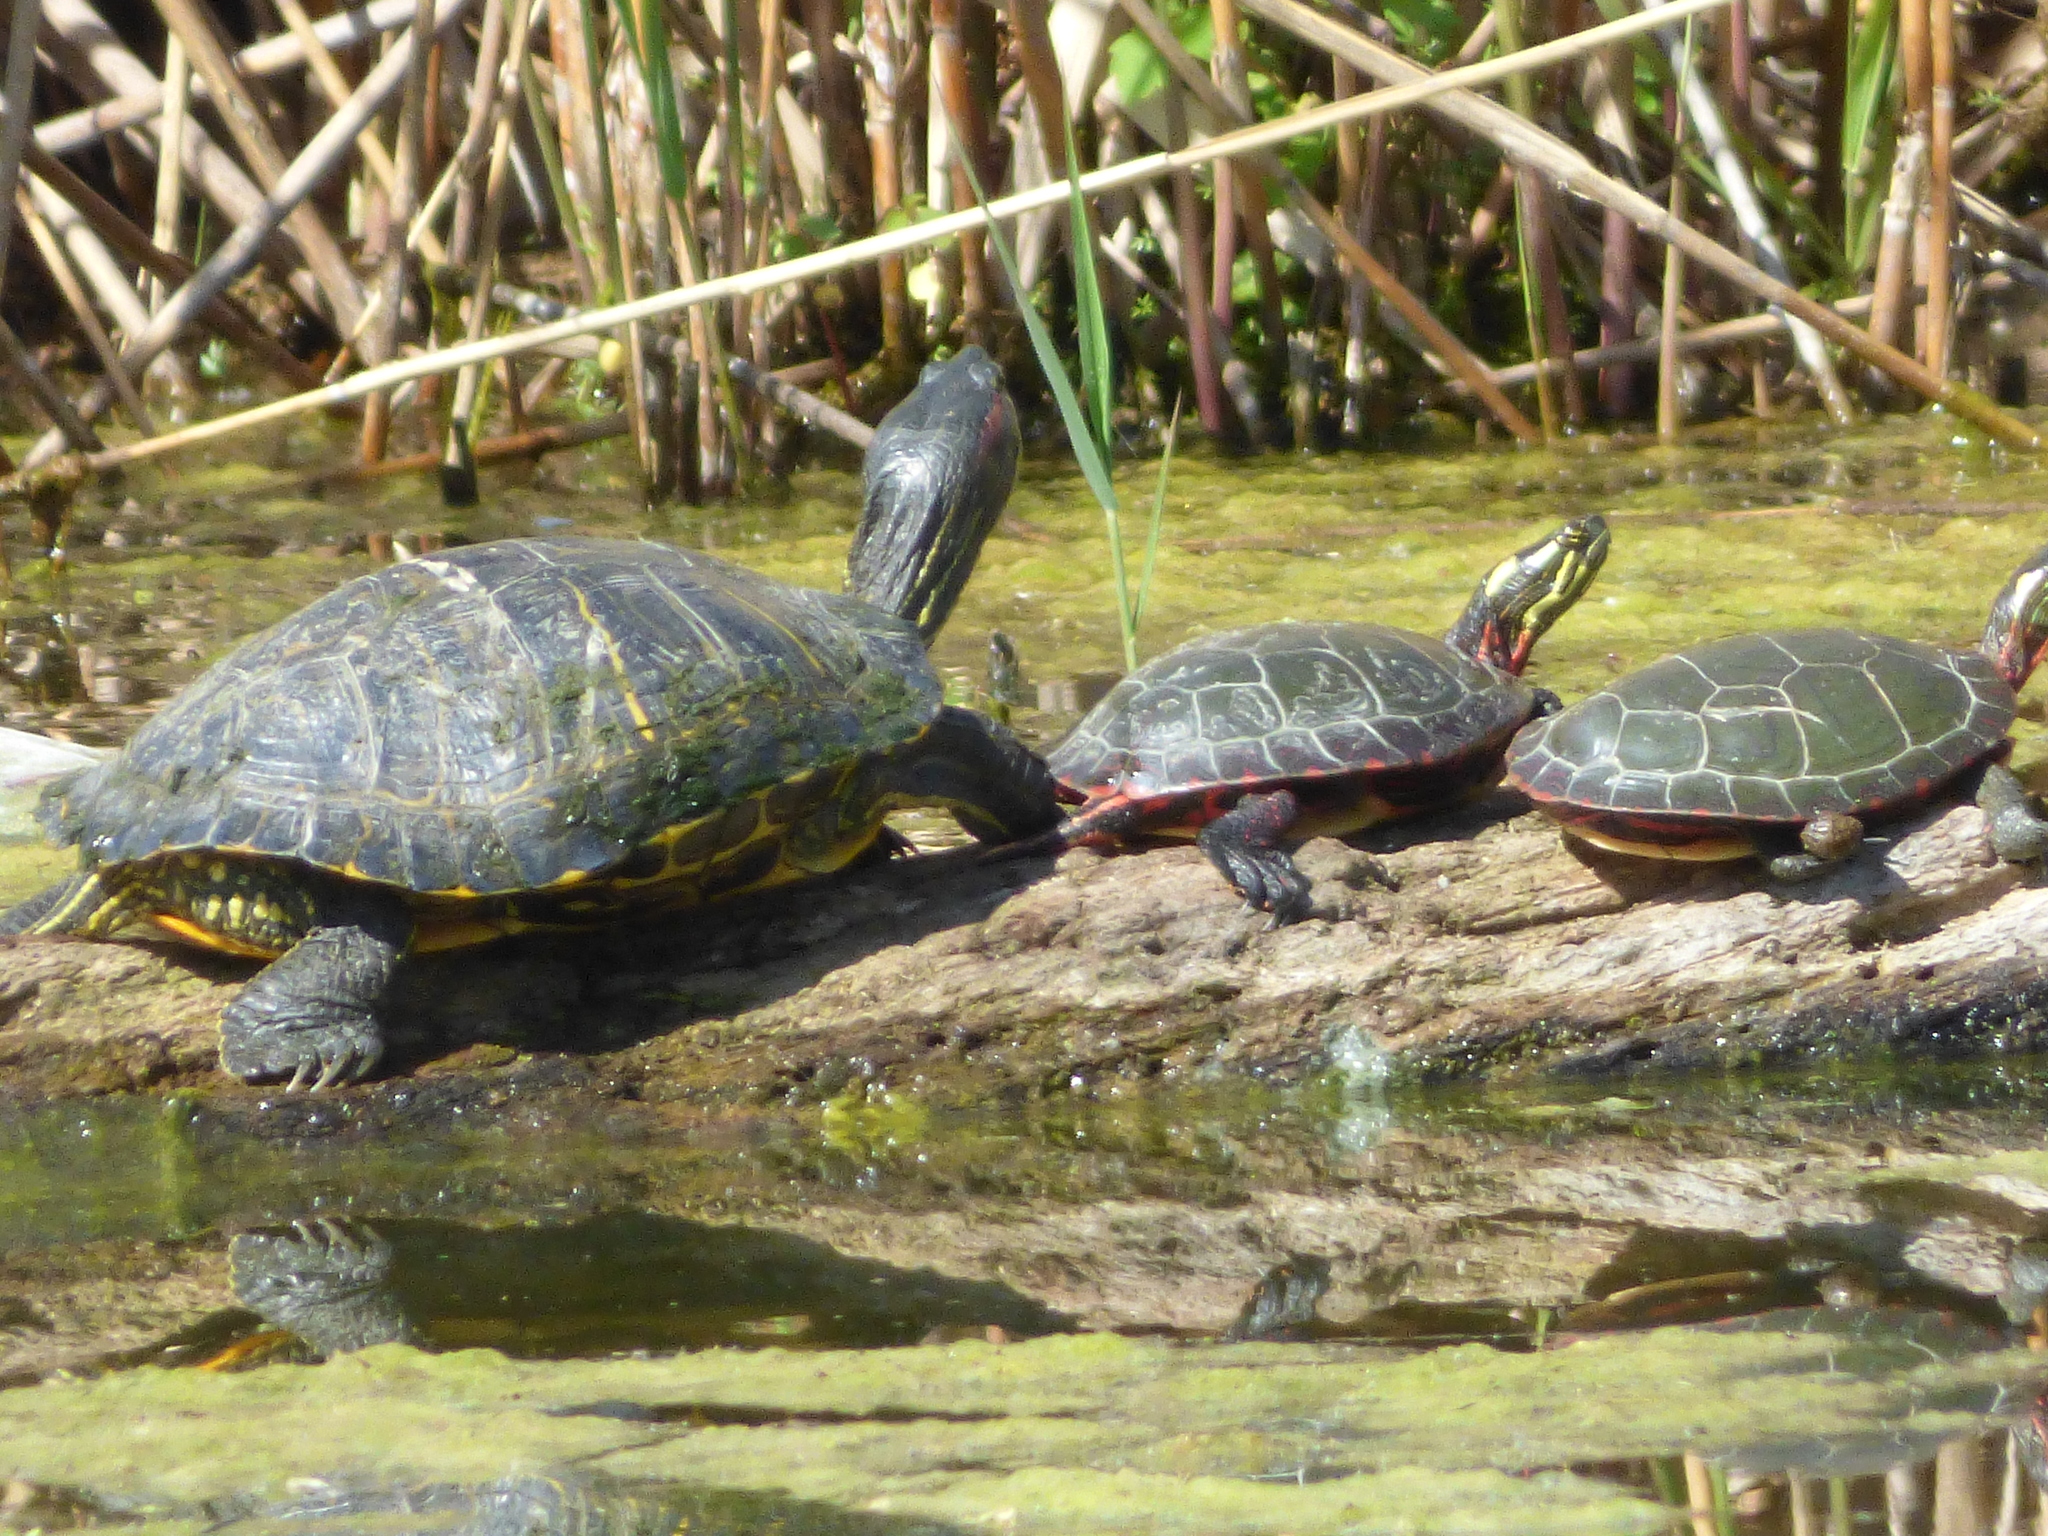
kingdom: Animalia
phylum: Chordata
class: Testudines
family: Emydidae
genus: Trachemys
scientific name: Trachemys scripta
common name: Slider
